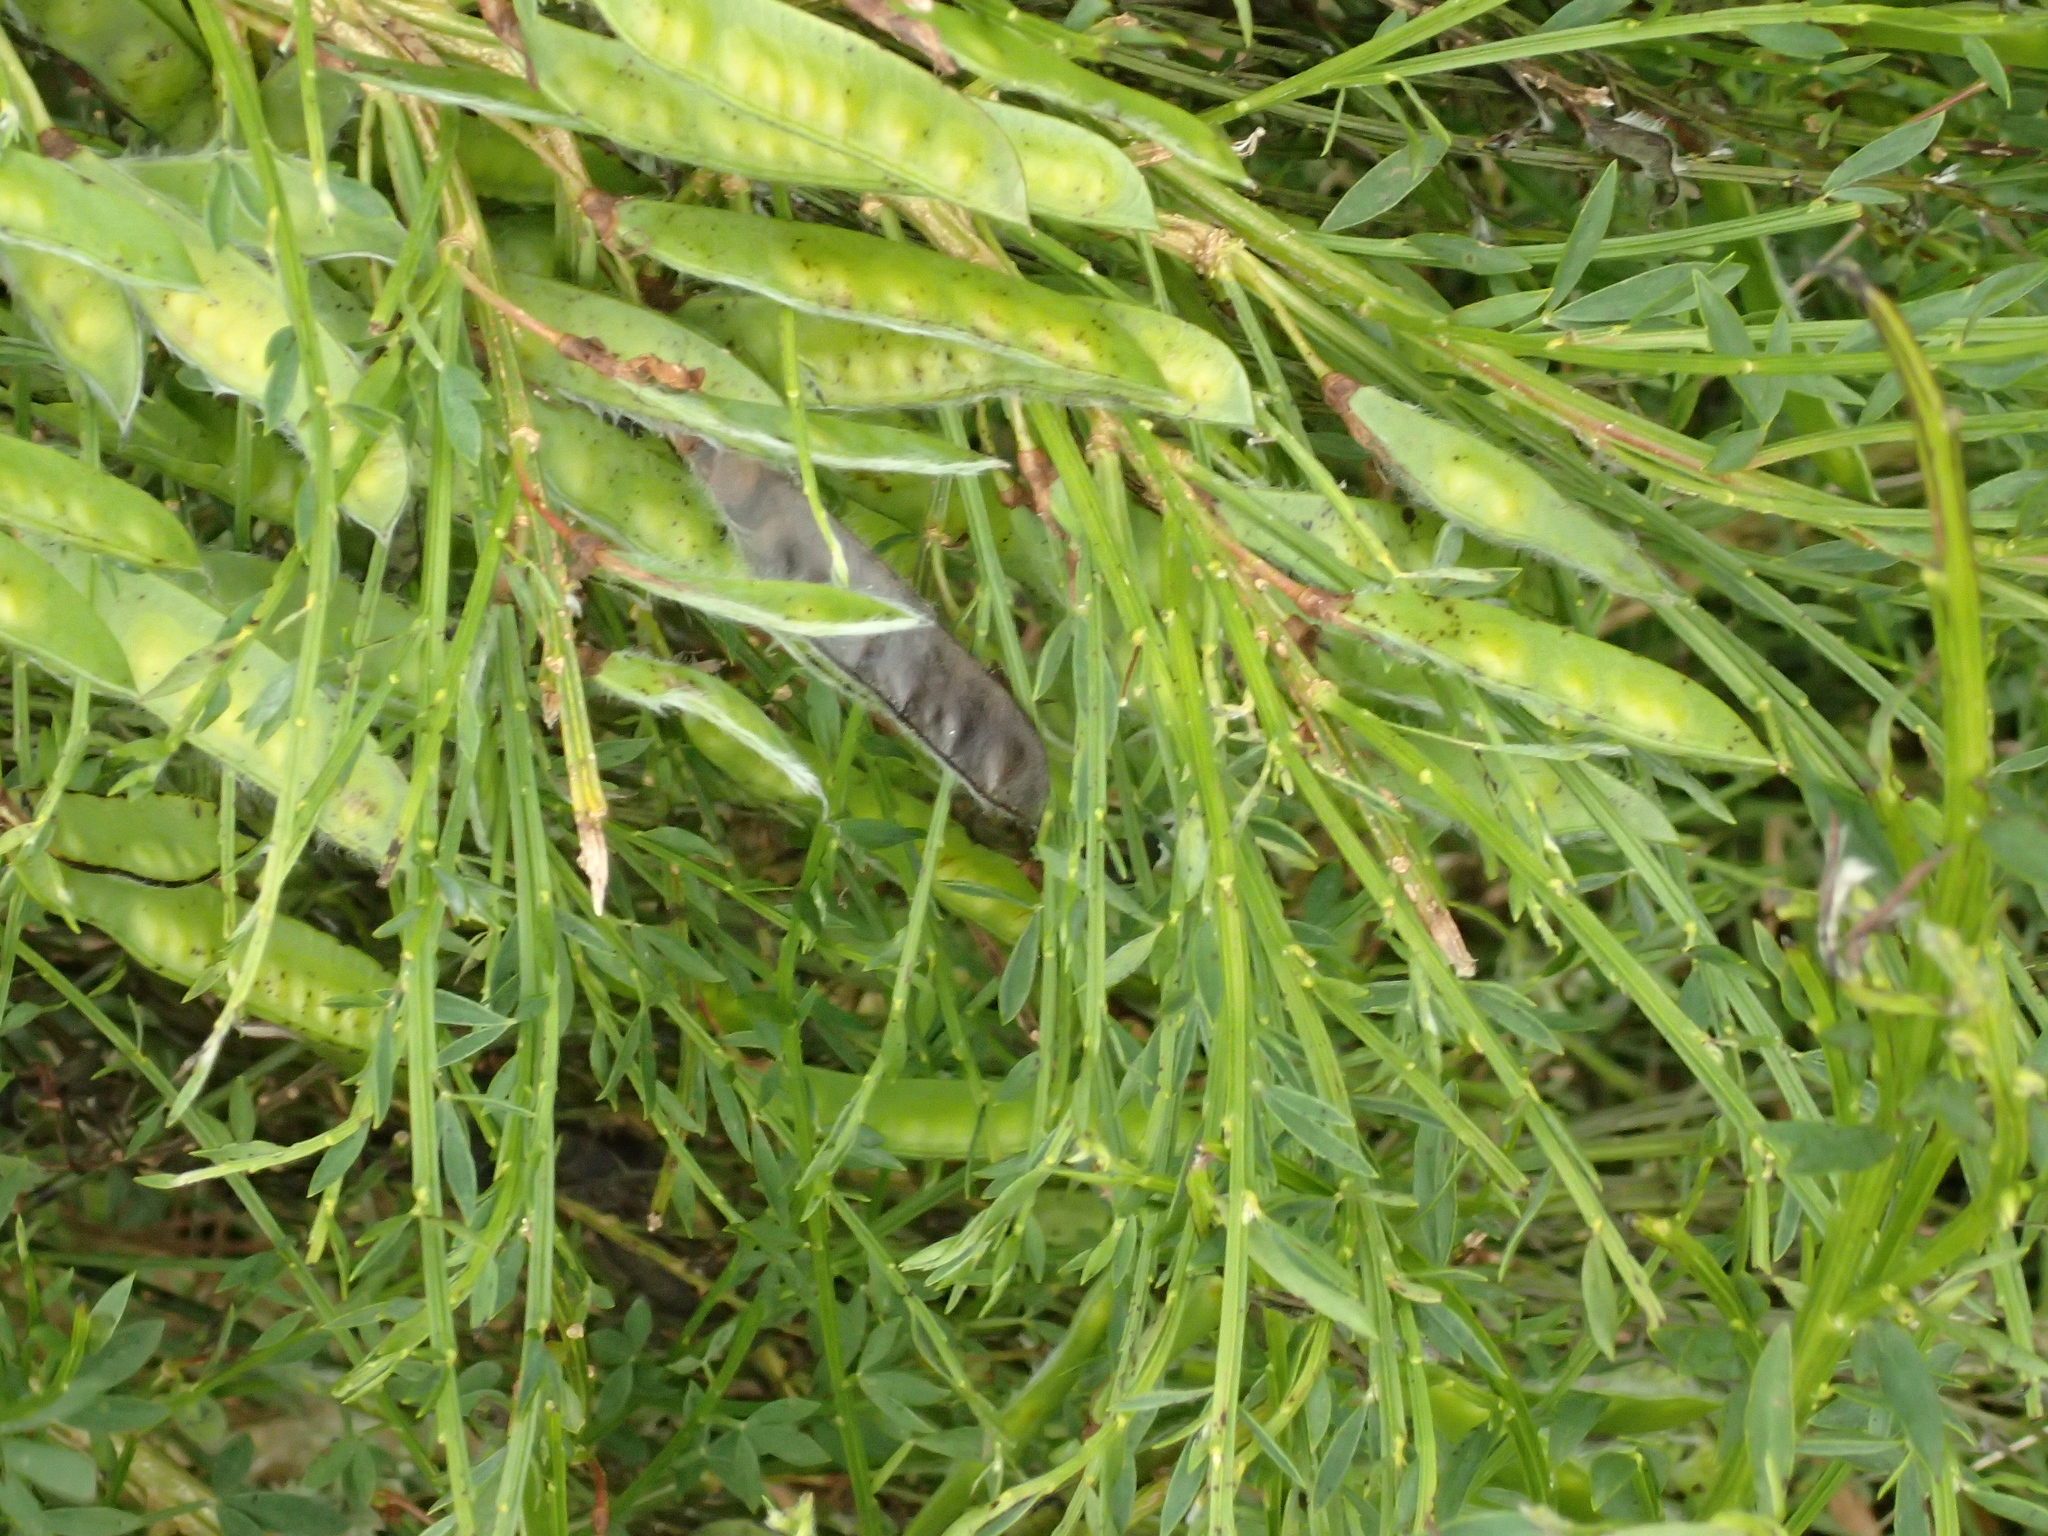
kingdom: Plantae
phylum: Tracheophyta
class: Magnoliopsida
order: Fabales
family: Fabaceae
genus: Cytisus
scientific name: Cytisus scoparius
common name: Scotch broom
